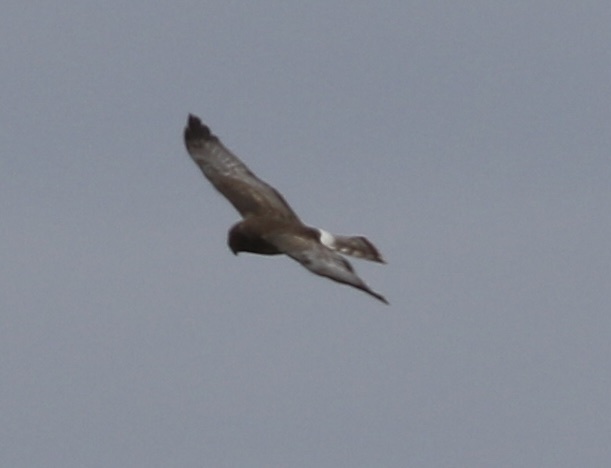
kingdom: Animalia
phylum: Chordata
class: Aves
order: Accipitriformes
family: Accipitridae
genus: Circus
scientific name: Circus cyaneus
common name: Hen harrier
